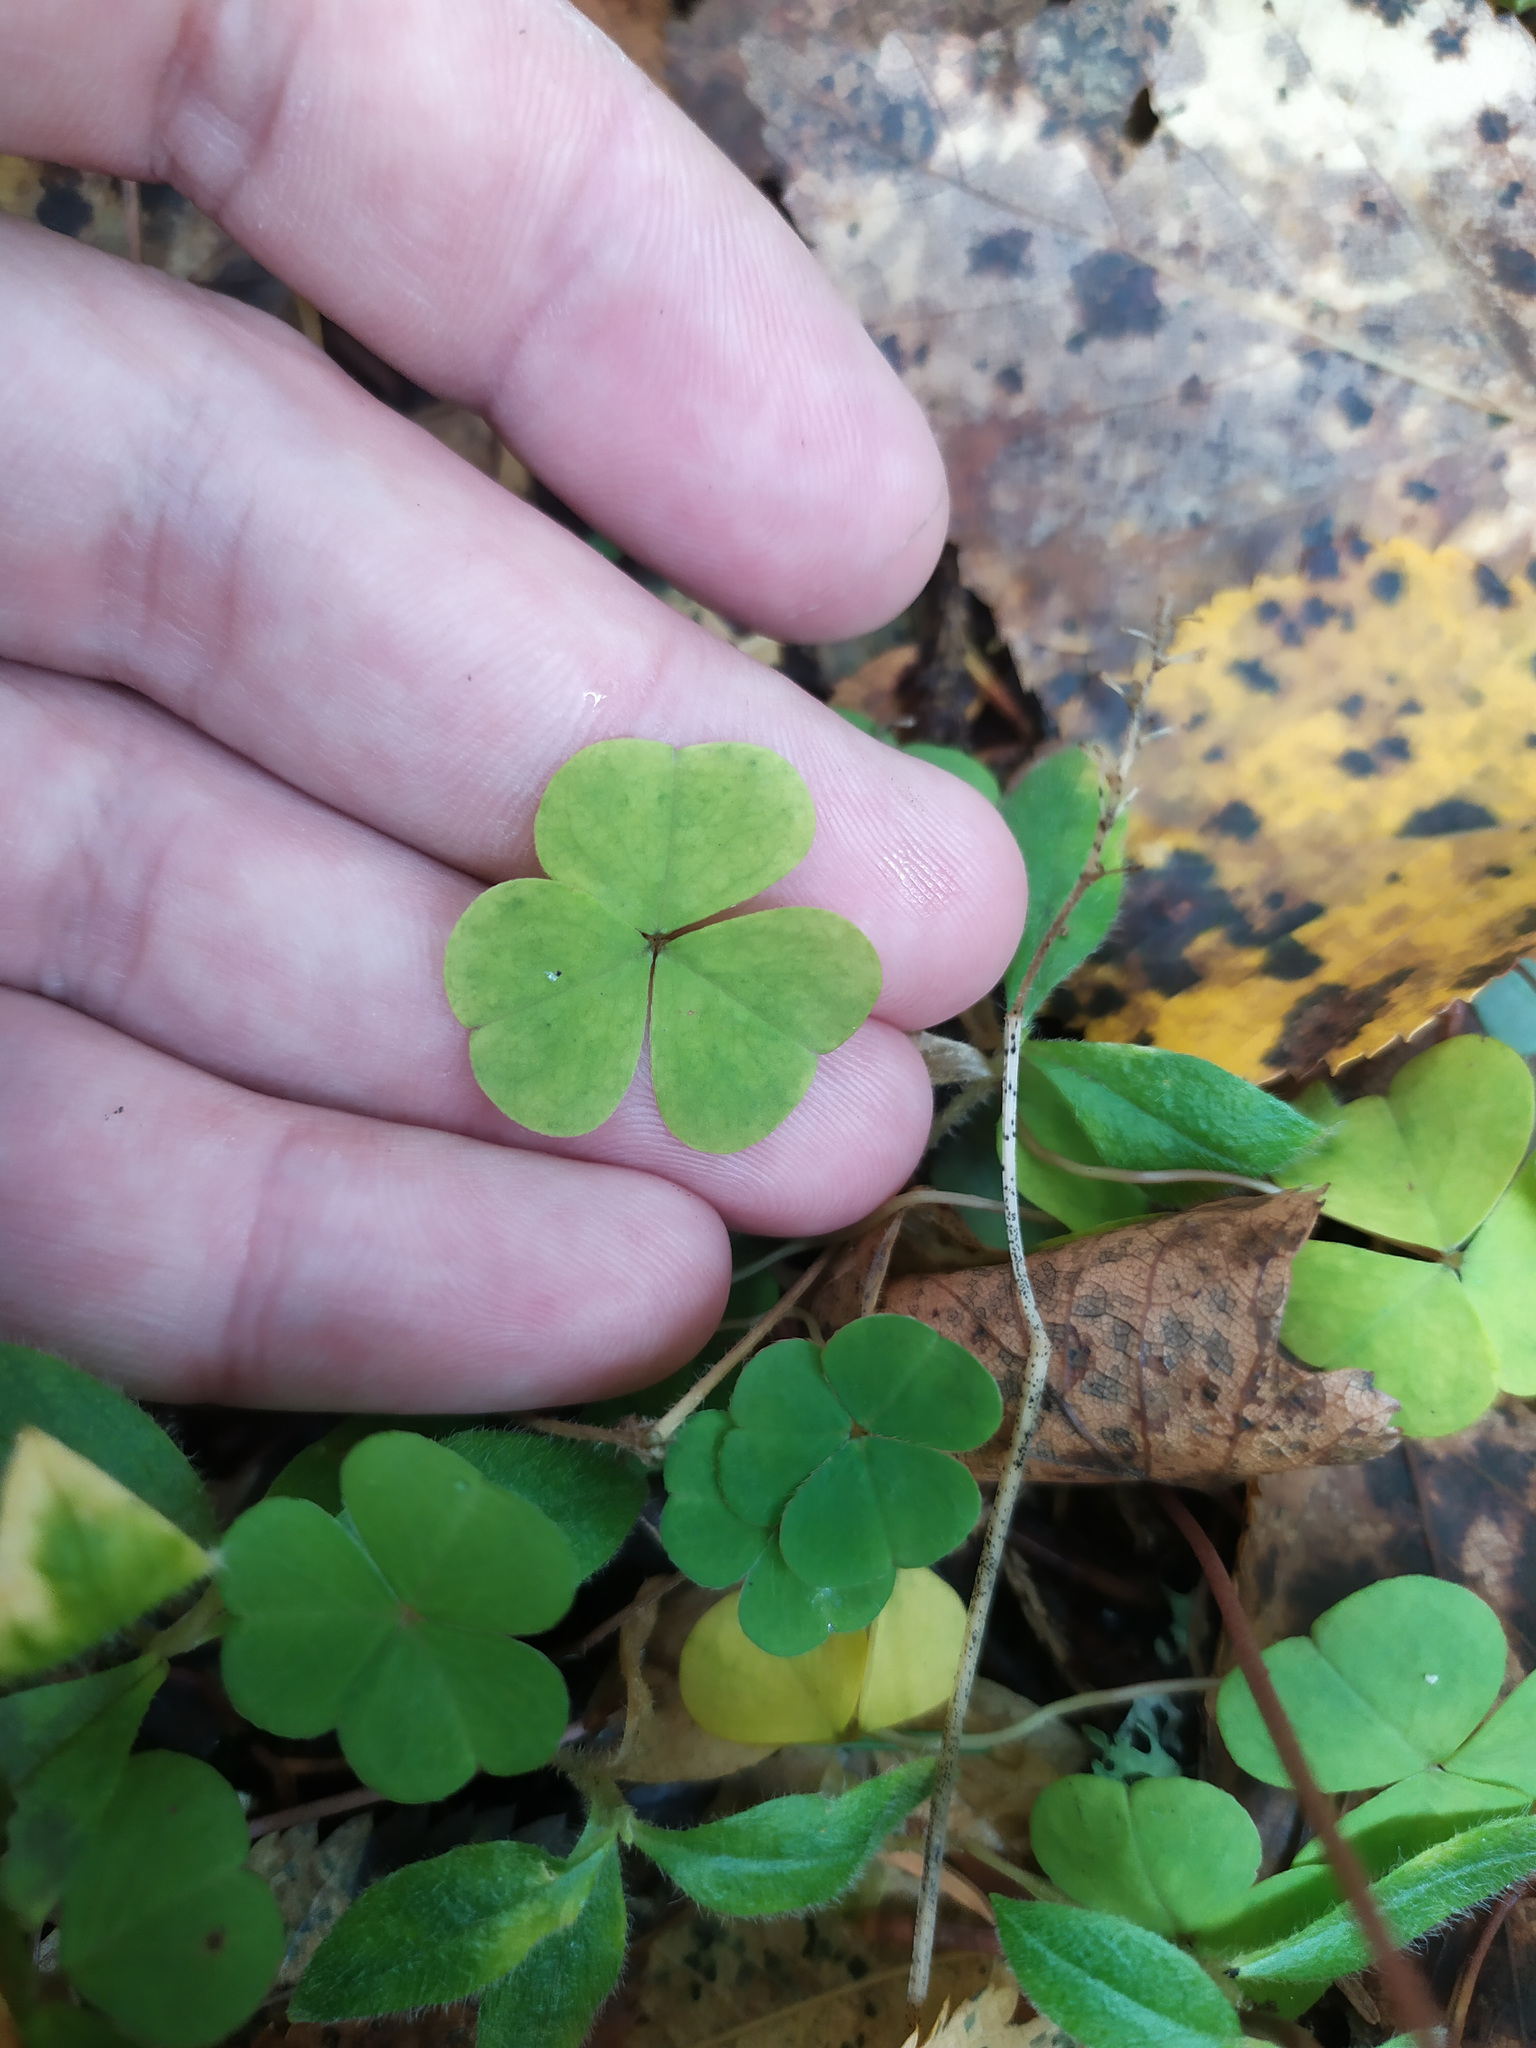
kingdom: Plantae
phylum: Tracheophyta
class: Magnoliopsida
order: Oxalidales
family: Oxalidaceae
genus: Oxalis
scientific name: Oxalis acetosella
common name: Wood-sorrel
